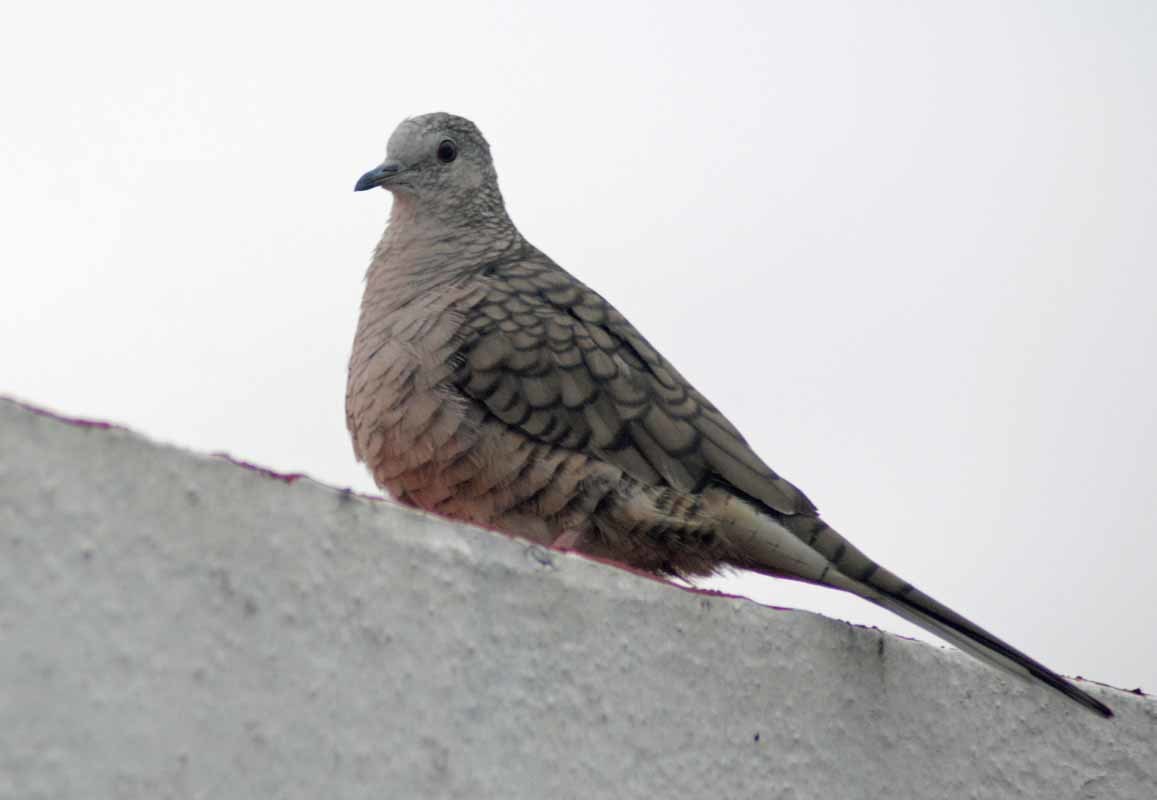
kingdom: Animalia
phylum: Chordata
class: Aves
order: Columbiformes
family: Columbidae
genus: Columbina
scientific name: Columbina inca
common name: Inca dove
